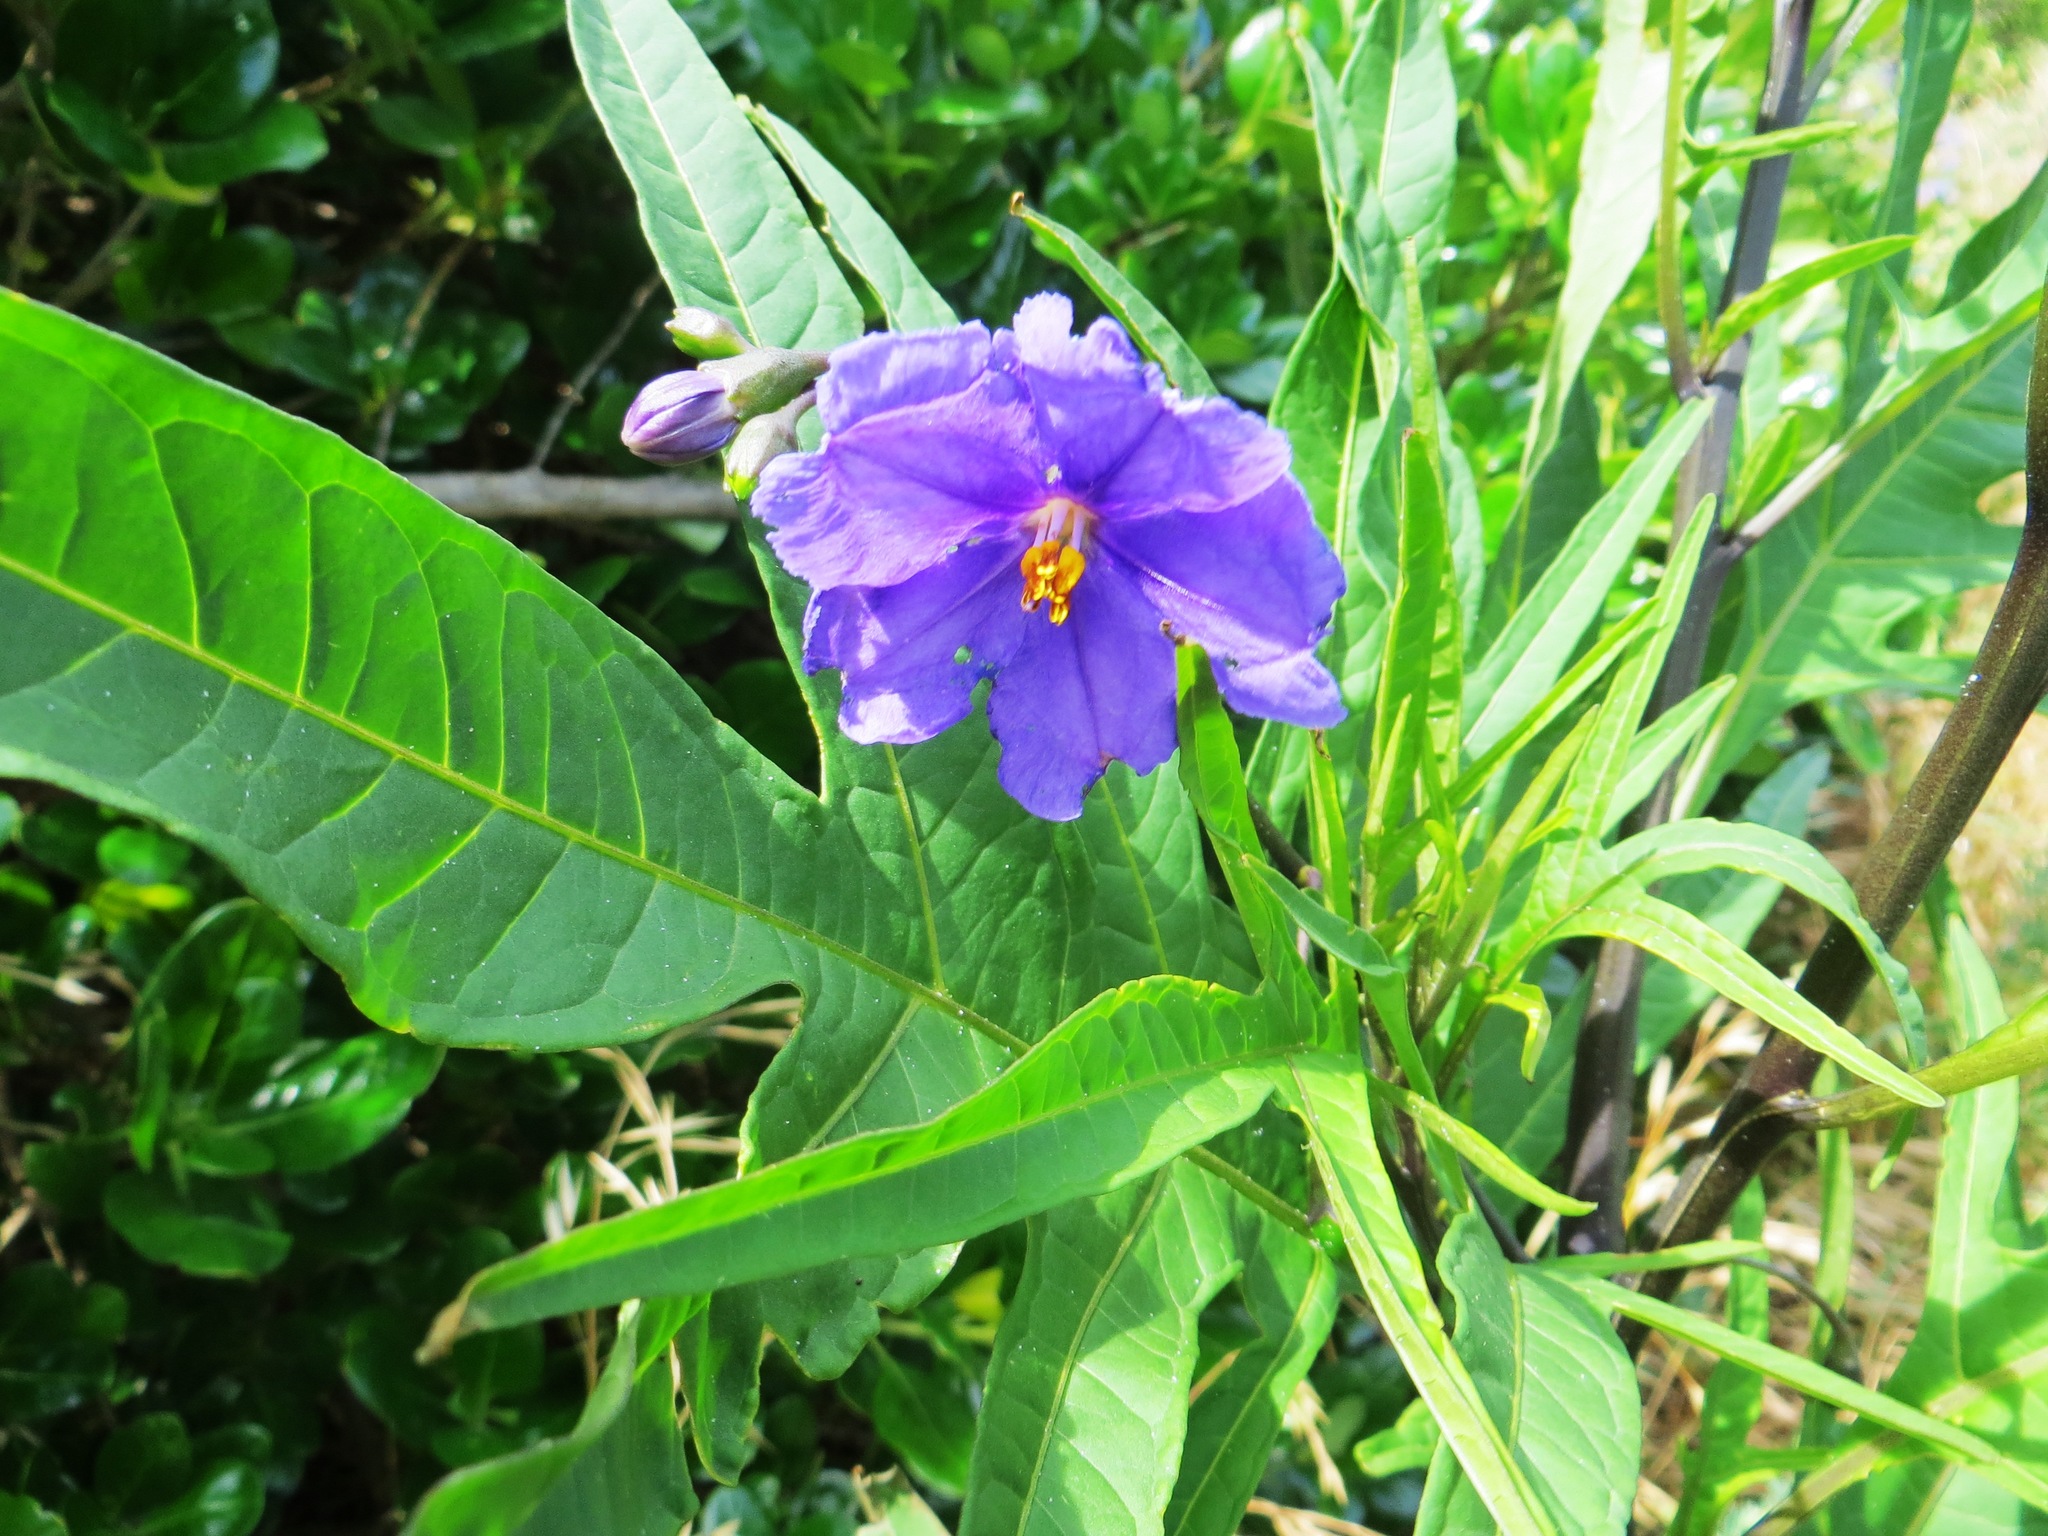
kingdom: Plantae
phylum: Tracheophyta
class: Magnoliopsida
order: Solanales
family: Solanaceae
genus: Solanum
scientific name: Solanum laciniatum
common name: Kangaroo-apple
